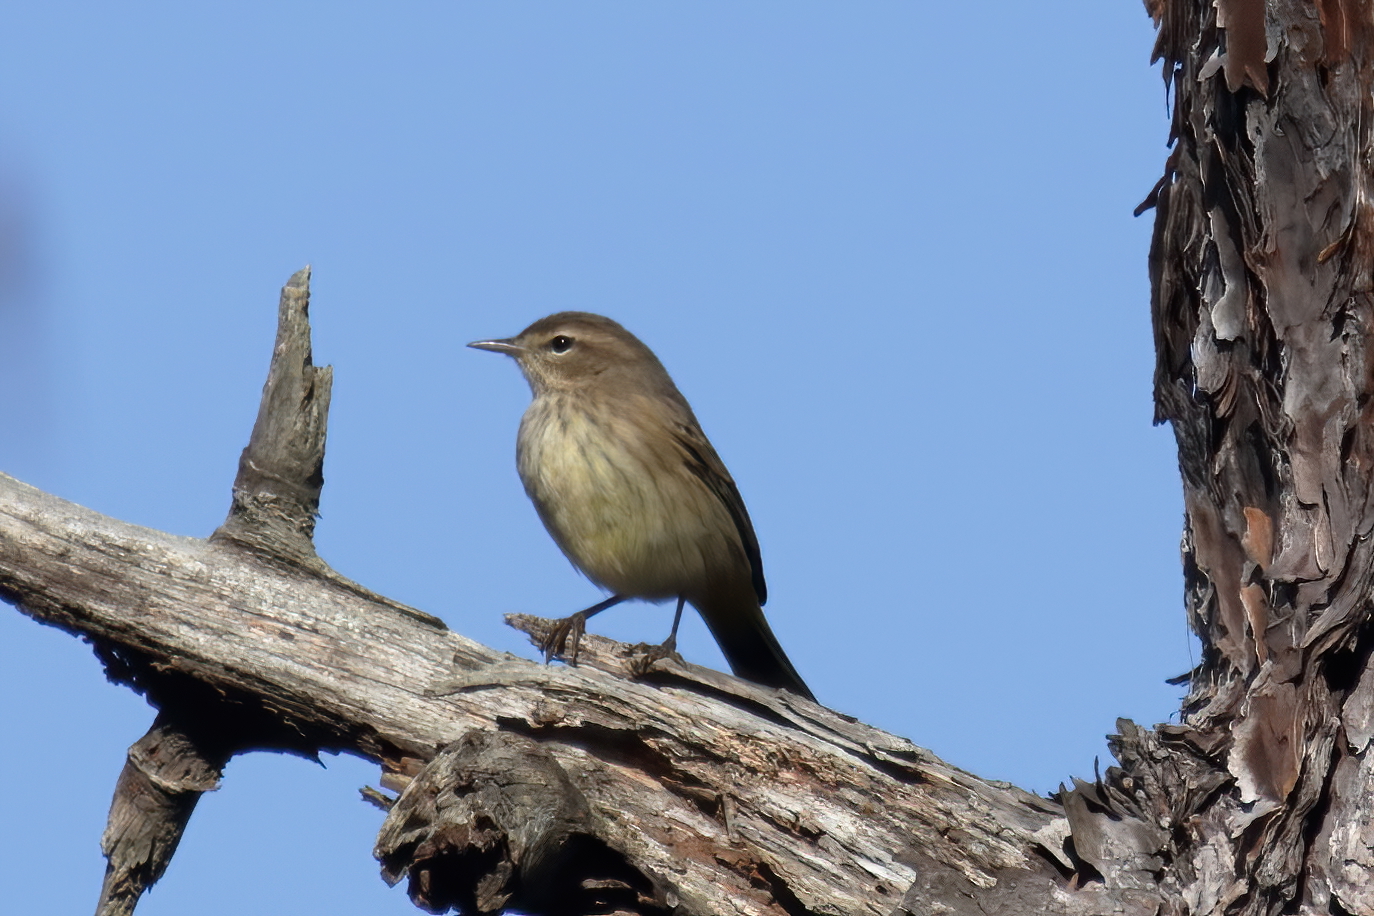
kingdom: Animalia
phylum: Chordata
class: Aves
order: Passeriformes
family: Parulidae
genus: Setophaga
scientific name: Setophaga palmarum
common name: Palm warbler
